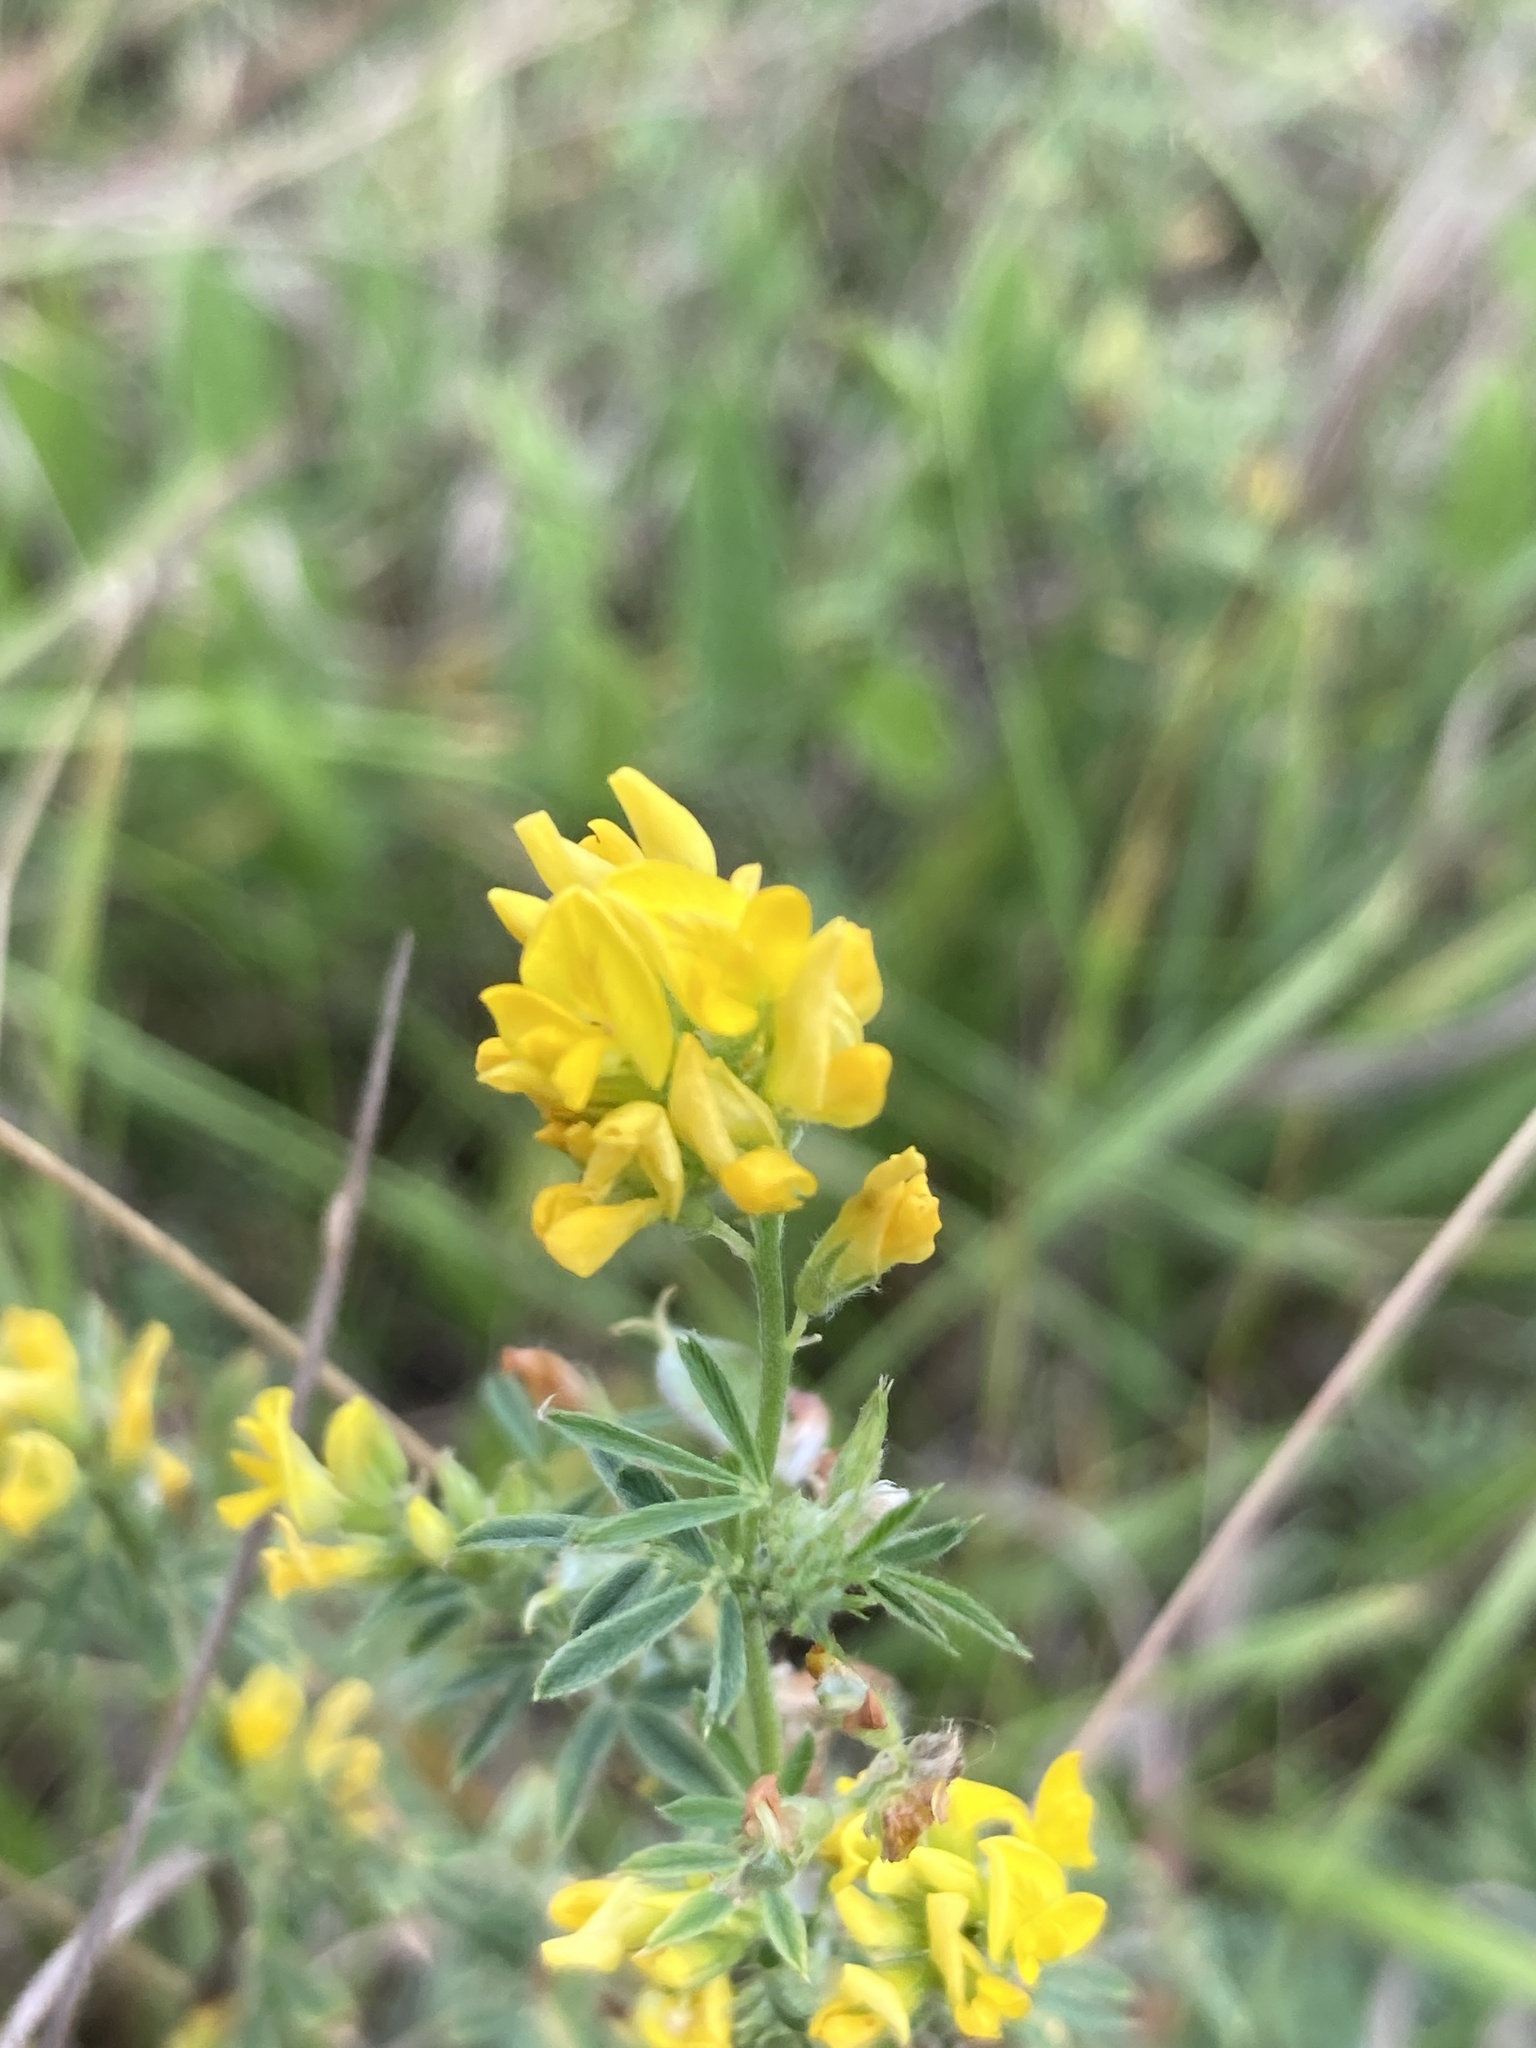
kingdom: Plantae
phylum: Tracheophyta
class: Magnoliopsida
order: Fabales
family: Fabaceae
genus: Medicago
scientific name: Medicago falcata
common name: Sickle medick
